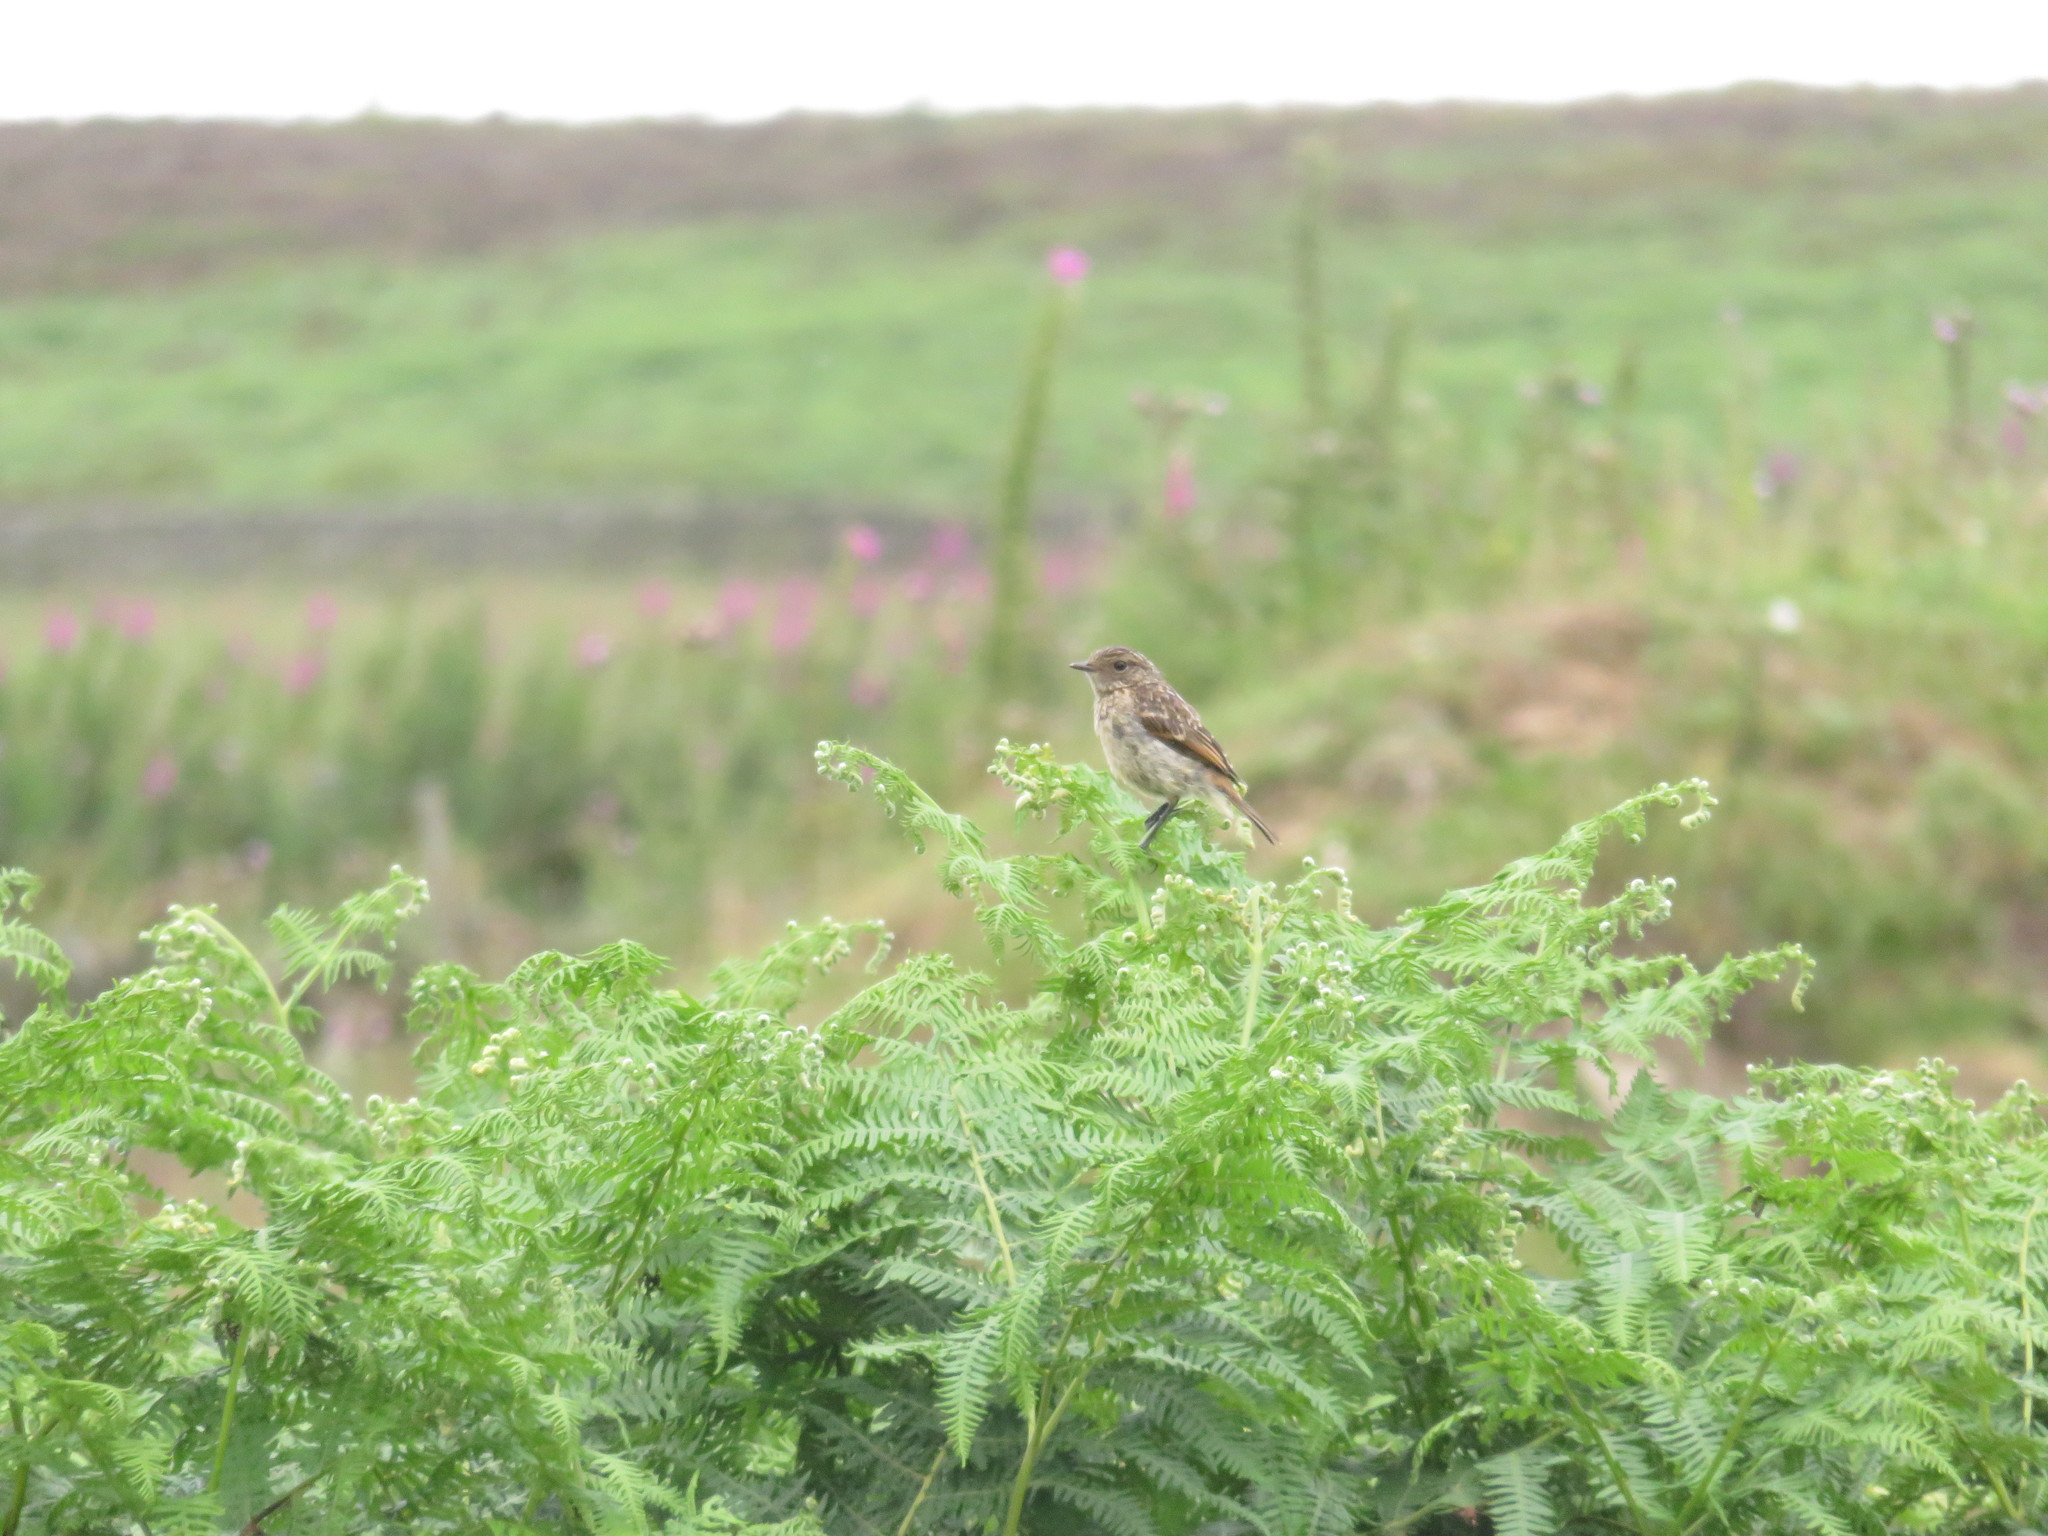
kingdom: Animalia
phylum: Chordata
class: Aves
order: Passeriformes
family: Muscicapidae
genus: Saxicola
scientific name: Saxicola rubicola
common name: European stonechat
